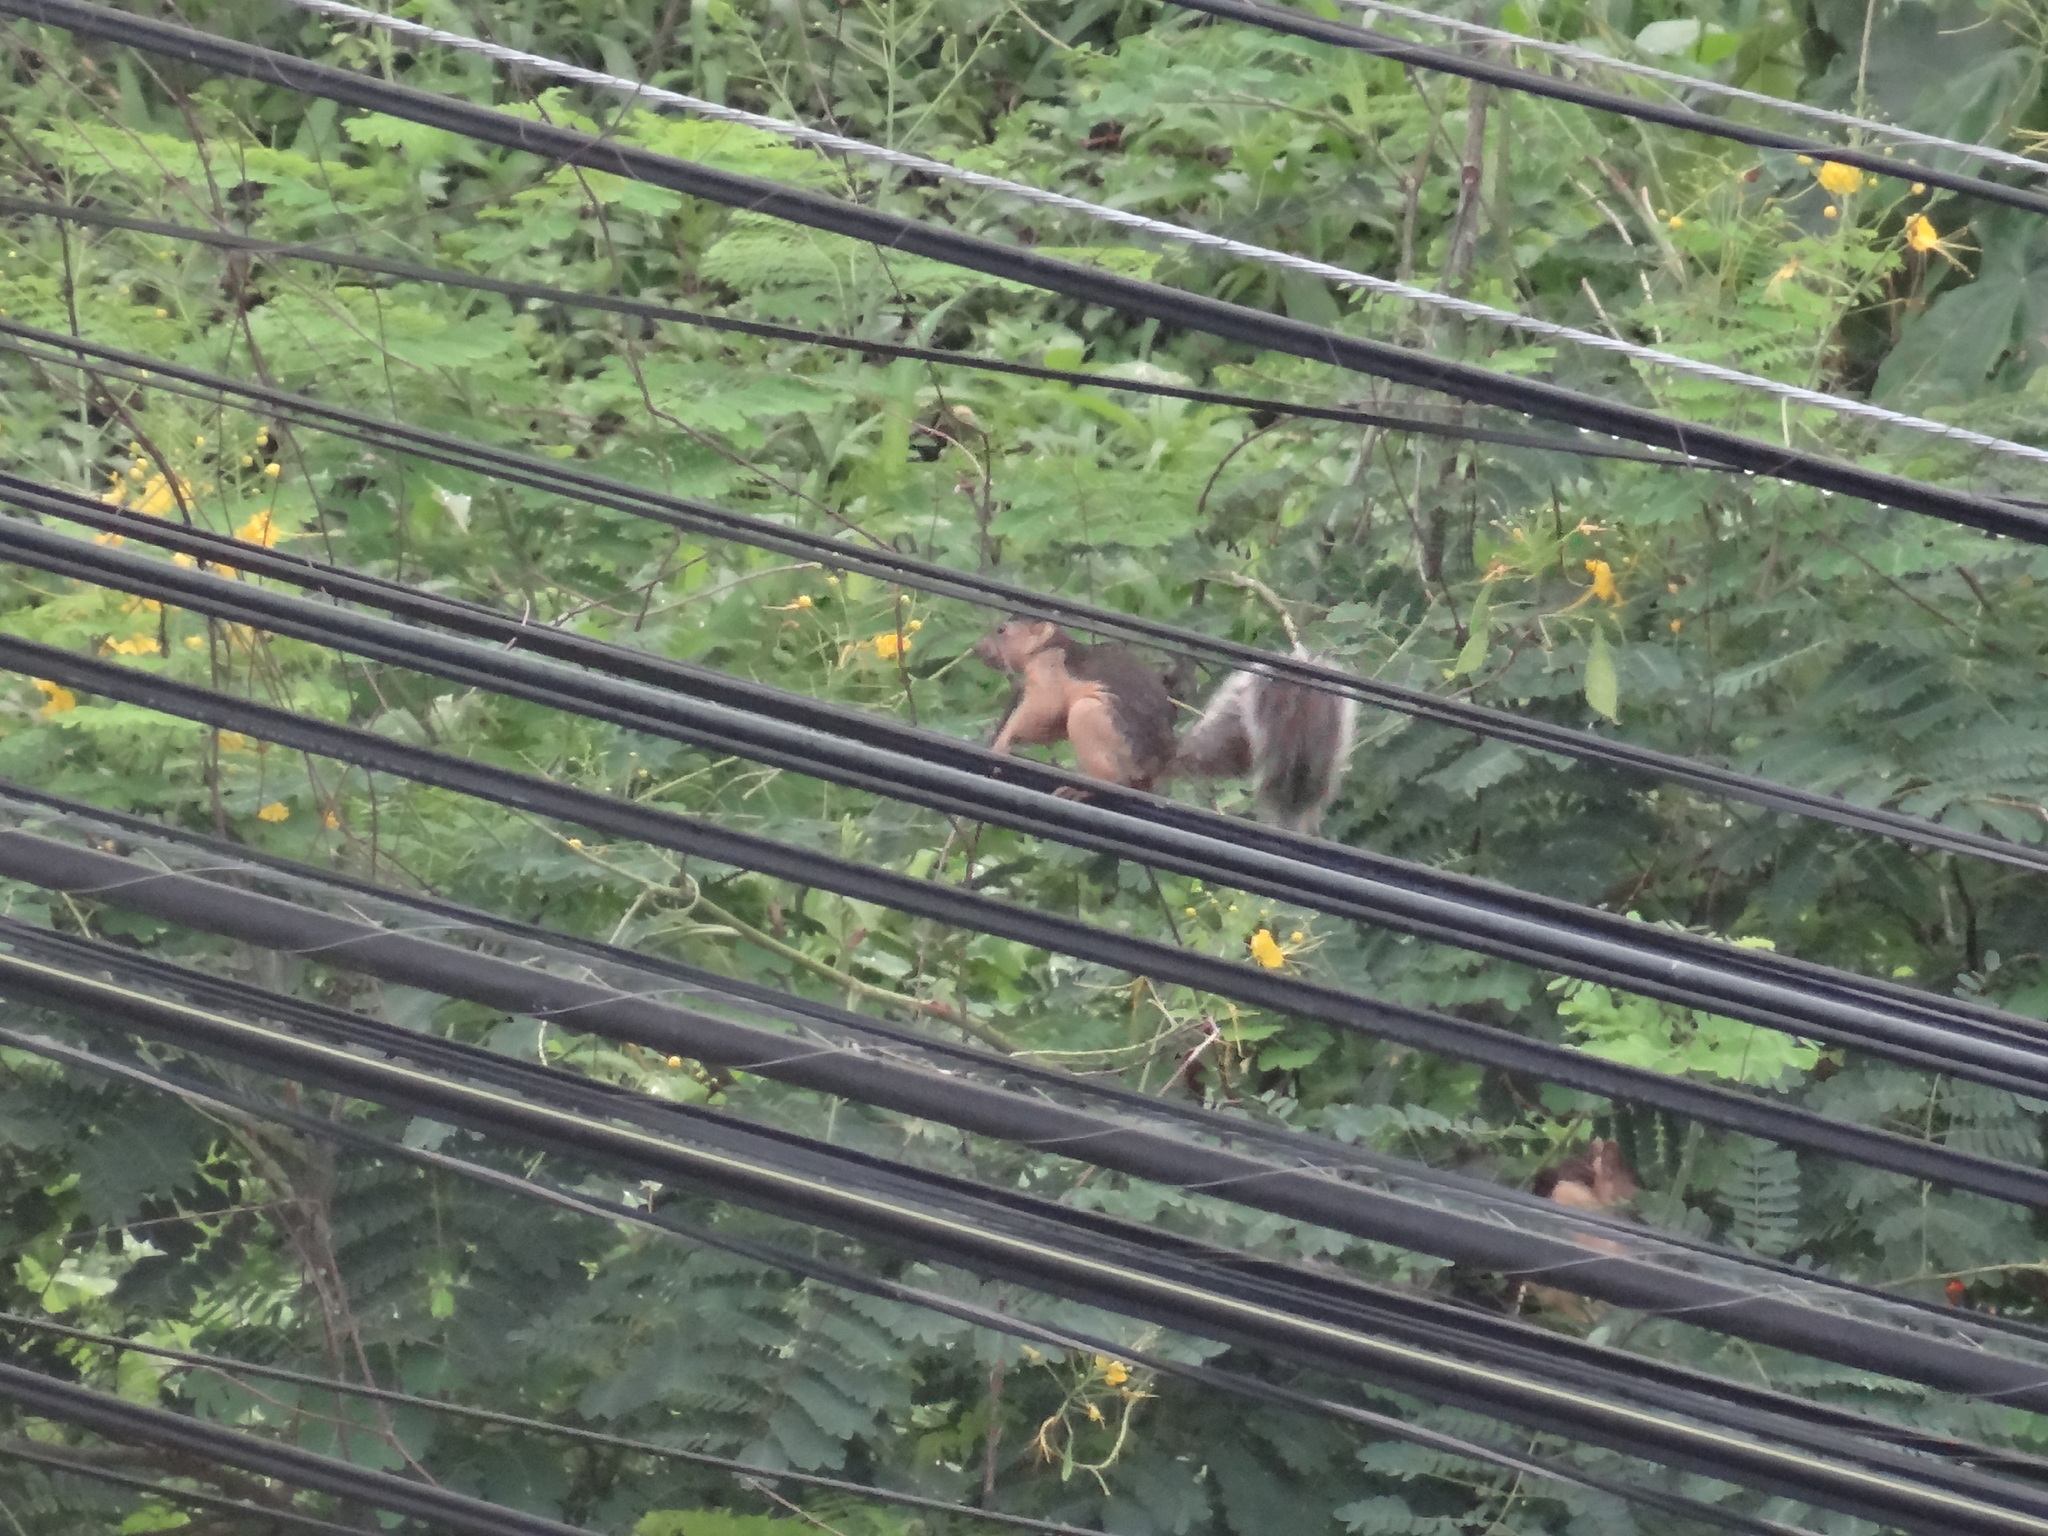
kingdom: Animalia
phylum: Chordata
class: Mammalia
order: Rodentia
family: Sciuridae
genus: Sciurus
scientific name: Sciurus variegatoides
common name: Variegated squirrel
